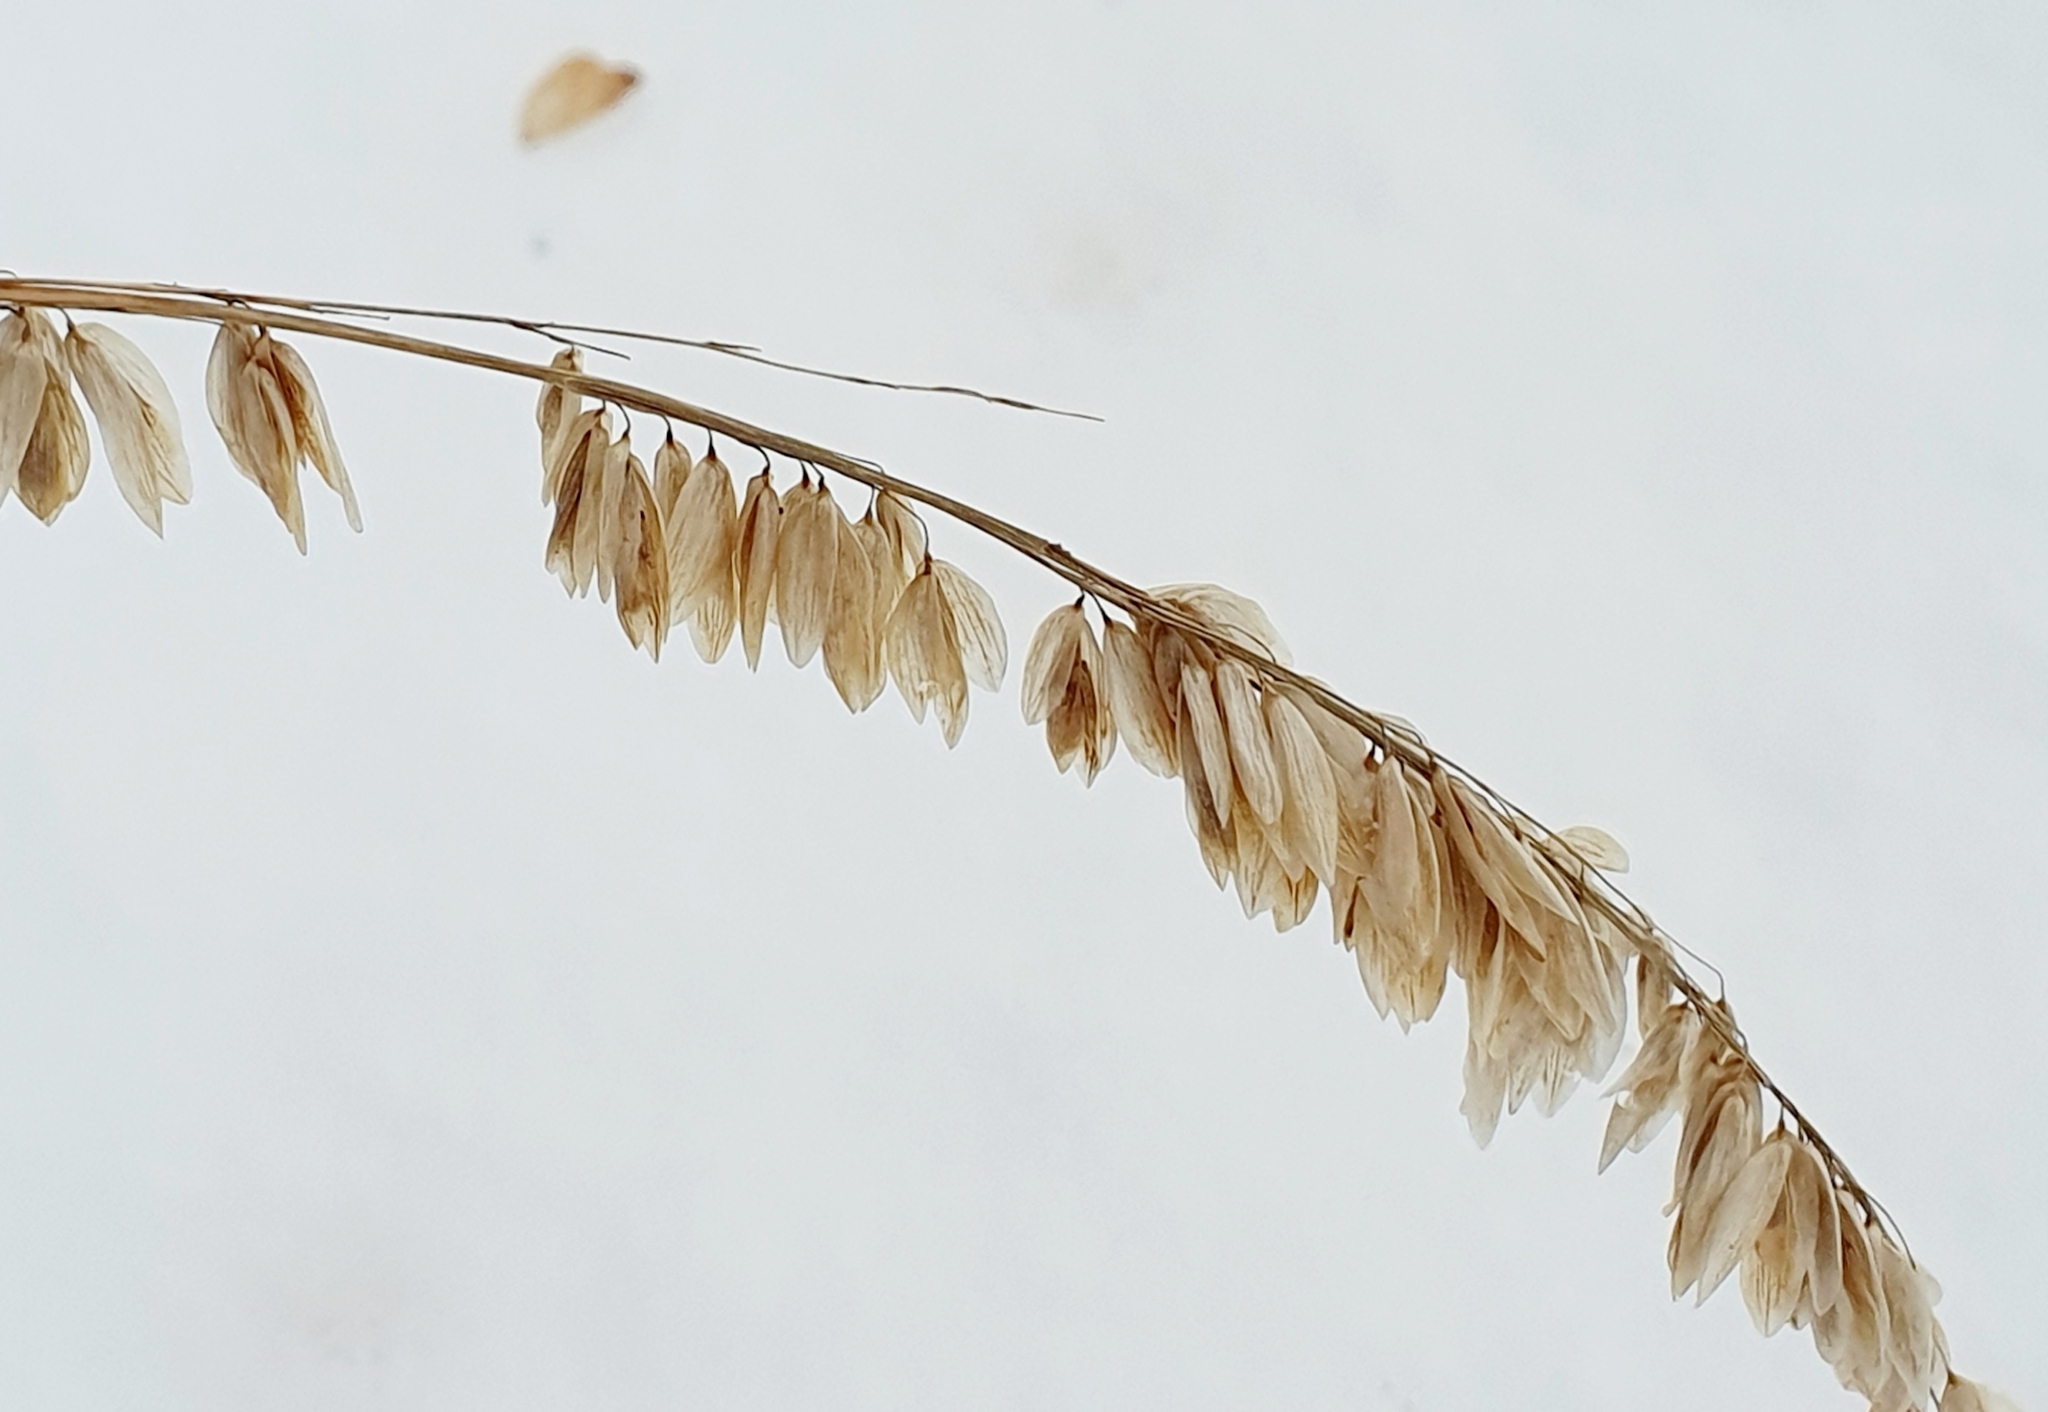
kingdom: Plantae
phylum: Tracheophyta
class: Liliopsida
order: Poales
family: Poaceae
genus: Melica
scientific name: Melica altissima
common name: Siberian melicgrass
